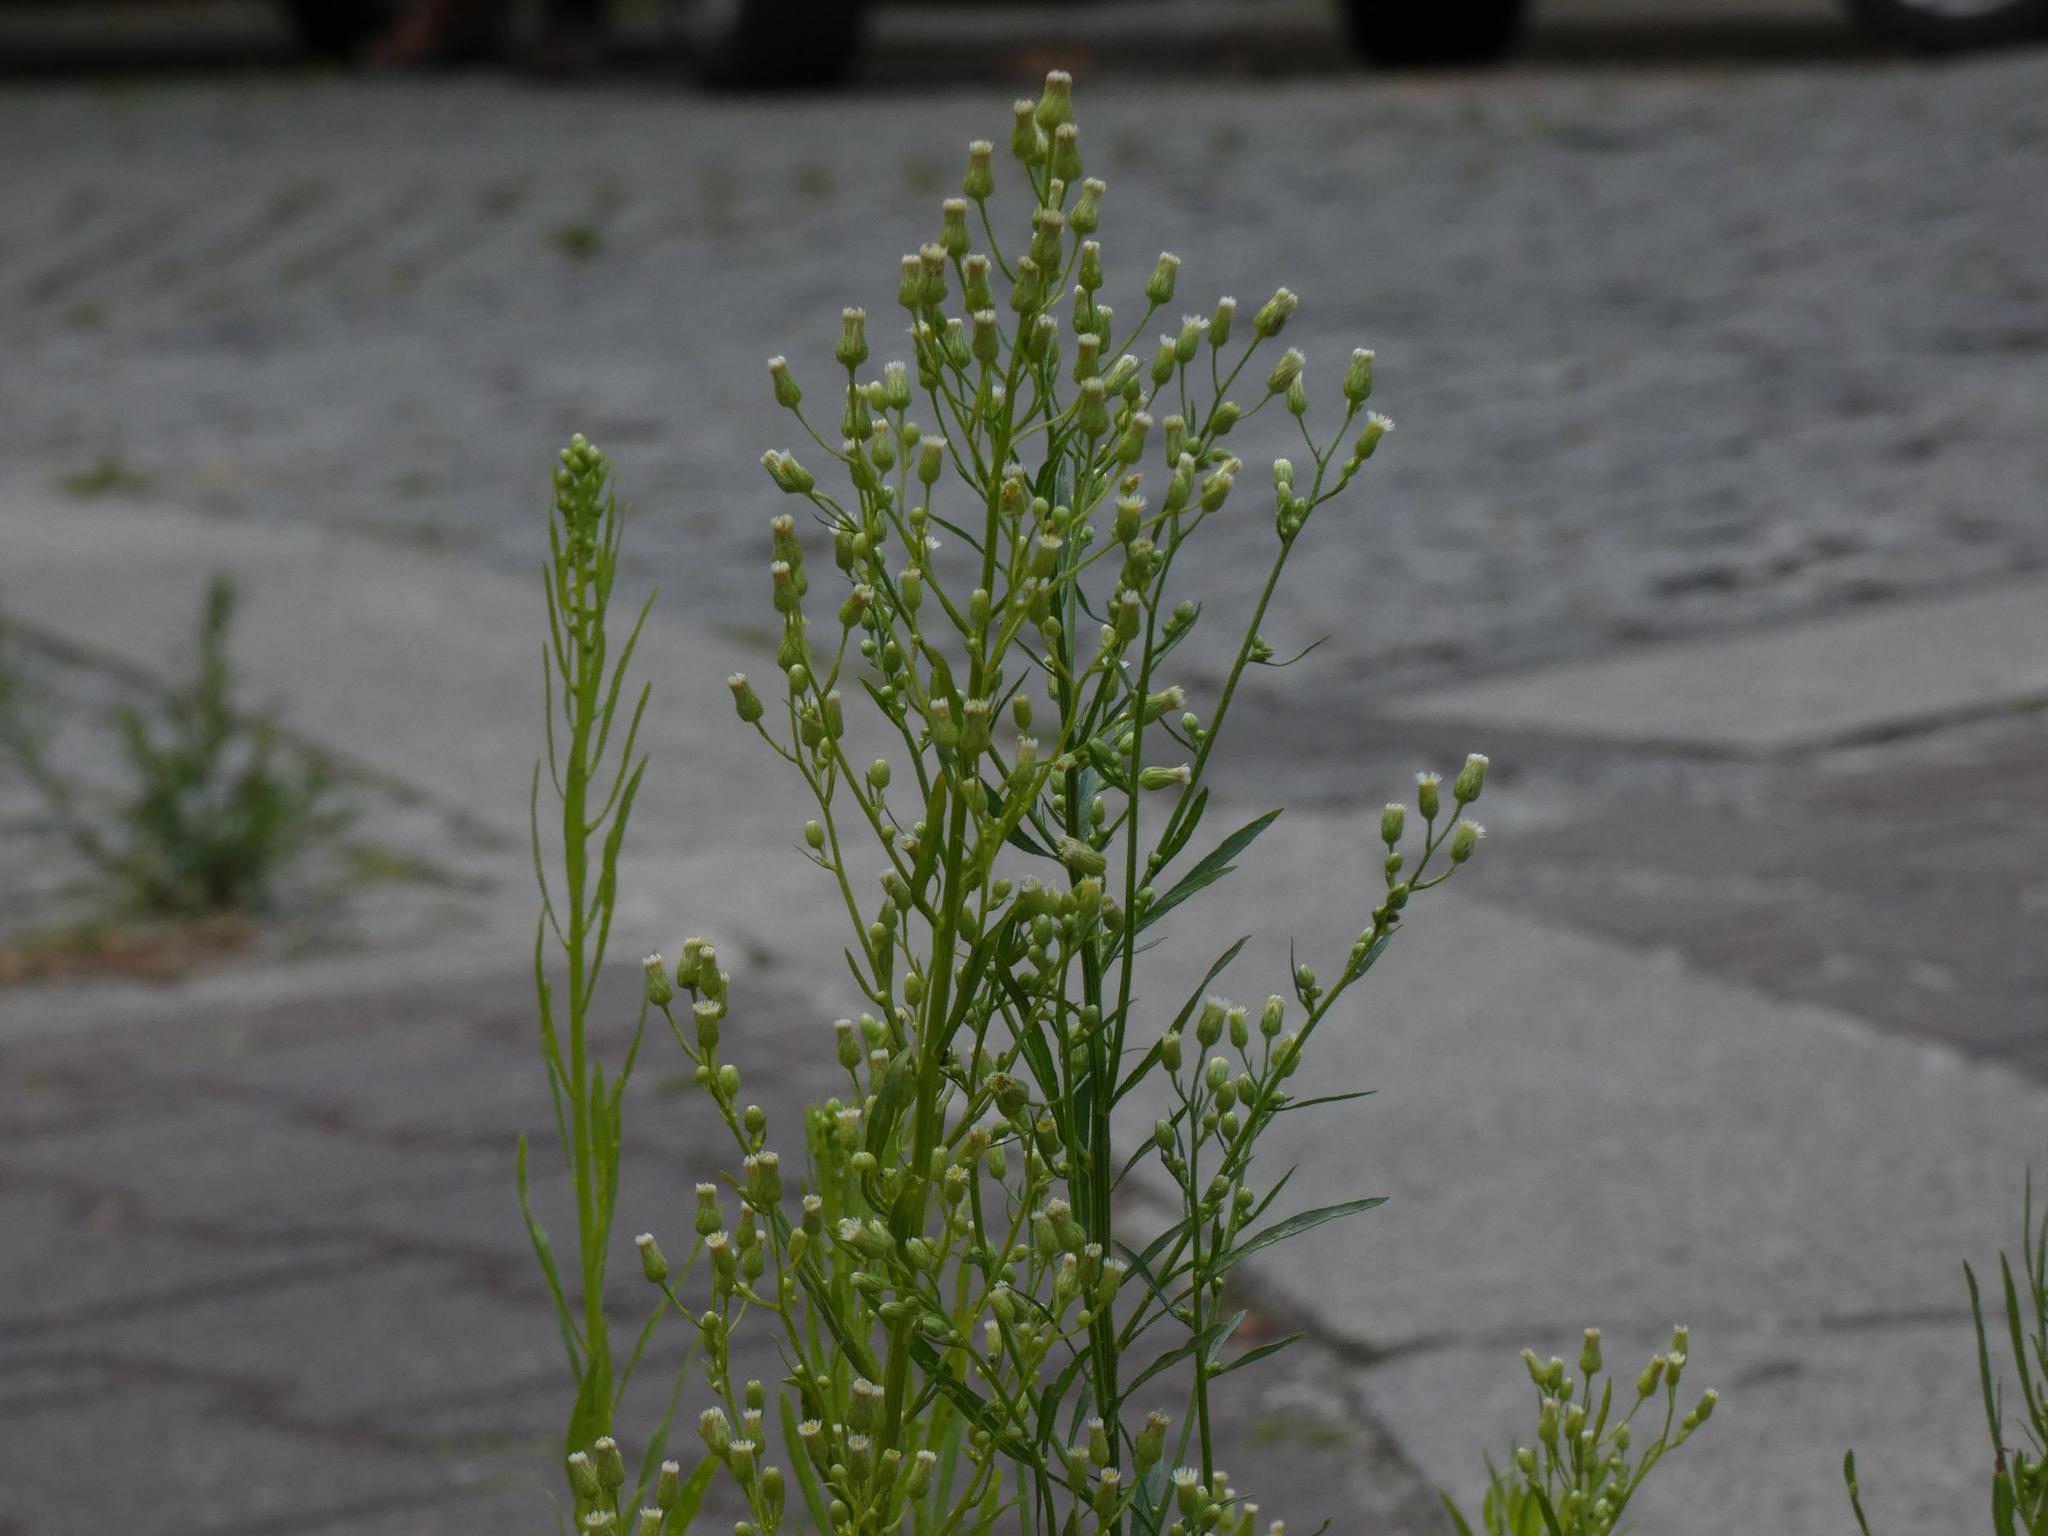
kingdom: Plantae
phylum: Tracheophyta
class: Magnoliopsida
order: Asterales
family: Asteraceae
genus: Erigeron
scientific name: Erigeron canadensis
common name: Canadian fleabane
